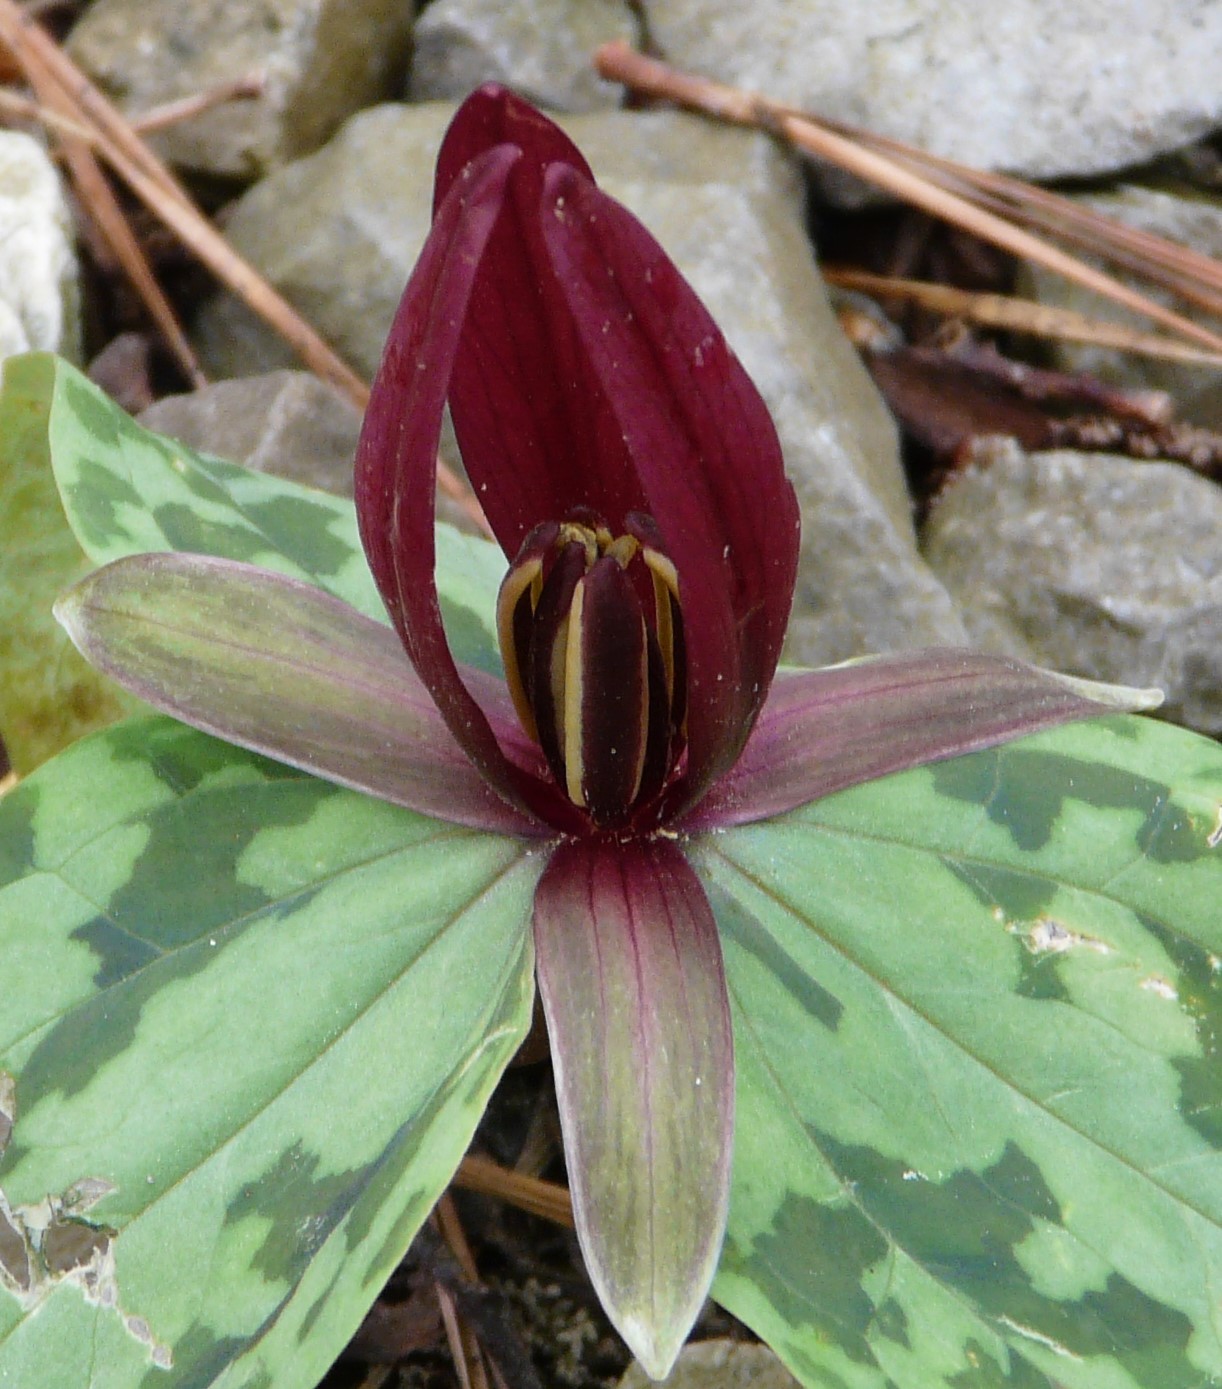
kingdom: Plantae
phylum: Tracheophyta
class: Liliopsida
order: Liliales
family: Melanthiaceae
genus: Trillium
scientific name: Trillium foetidissimum
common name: Mississippi river trillium
